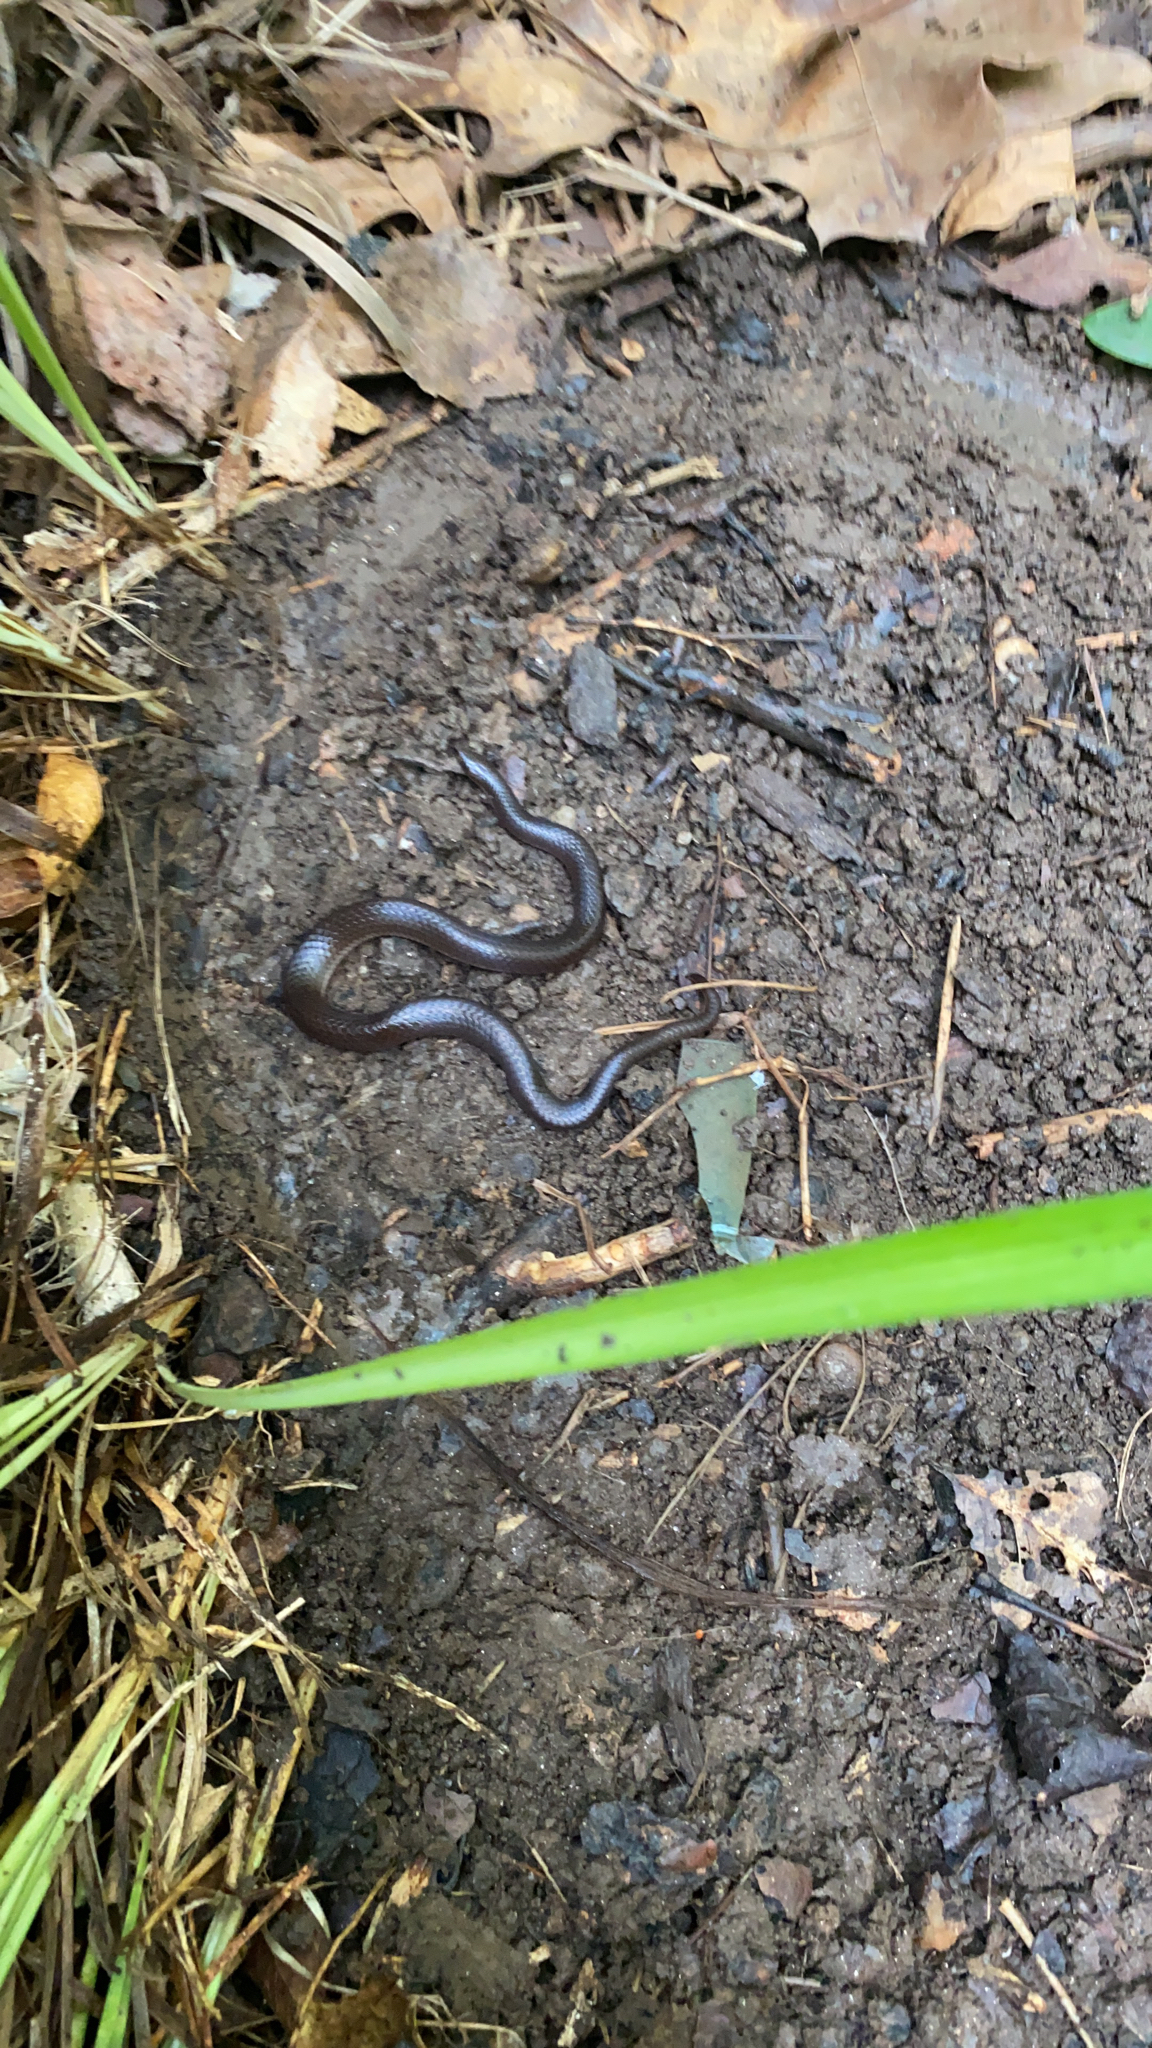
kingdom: Animalia
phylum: Chordata
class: Squamata
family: Colubridae
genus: Carphophis
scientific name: Carphophis amoenus
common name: Eastern worm snake
